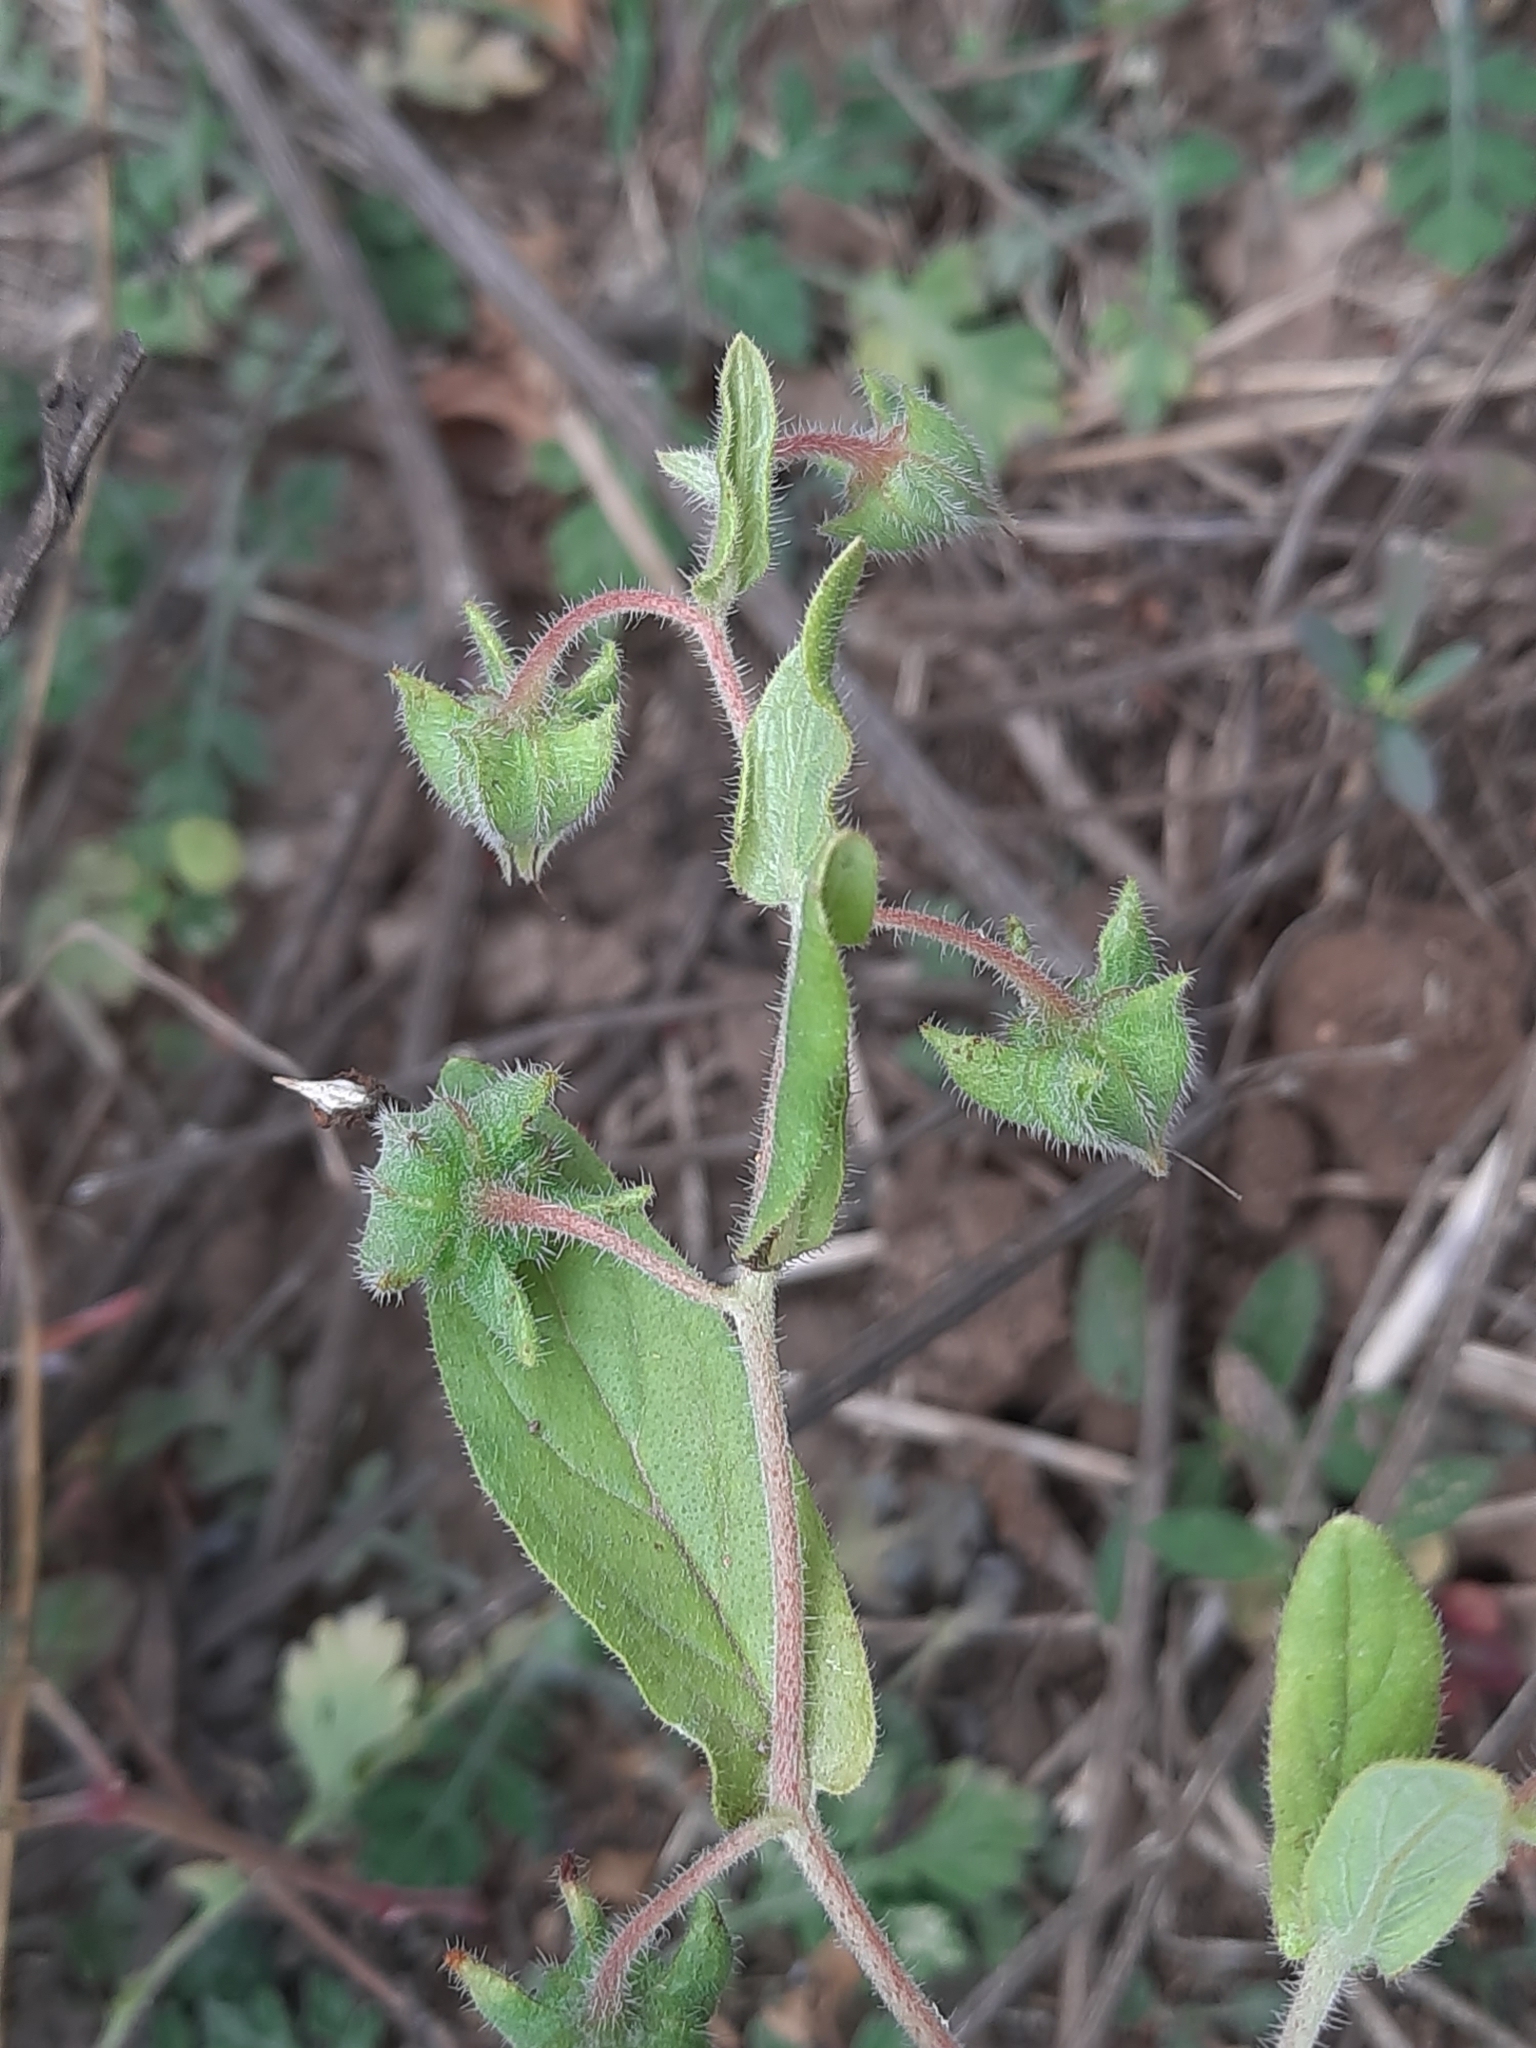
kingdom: Plantae
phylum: Tracheophyta
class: Magnoliopsida
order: Boraginales
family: Boraginaceae
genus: Trichodesma
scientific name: Trichodesma indicum
